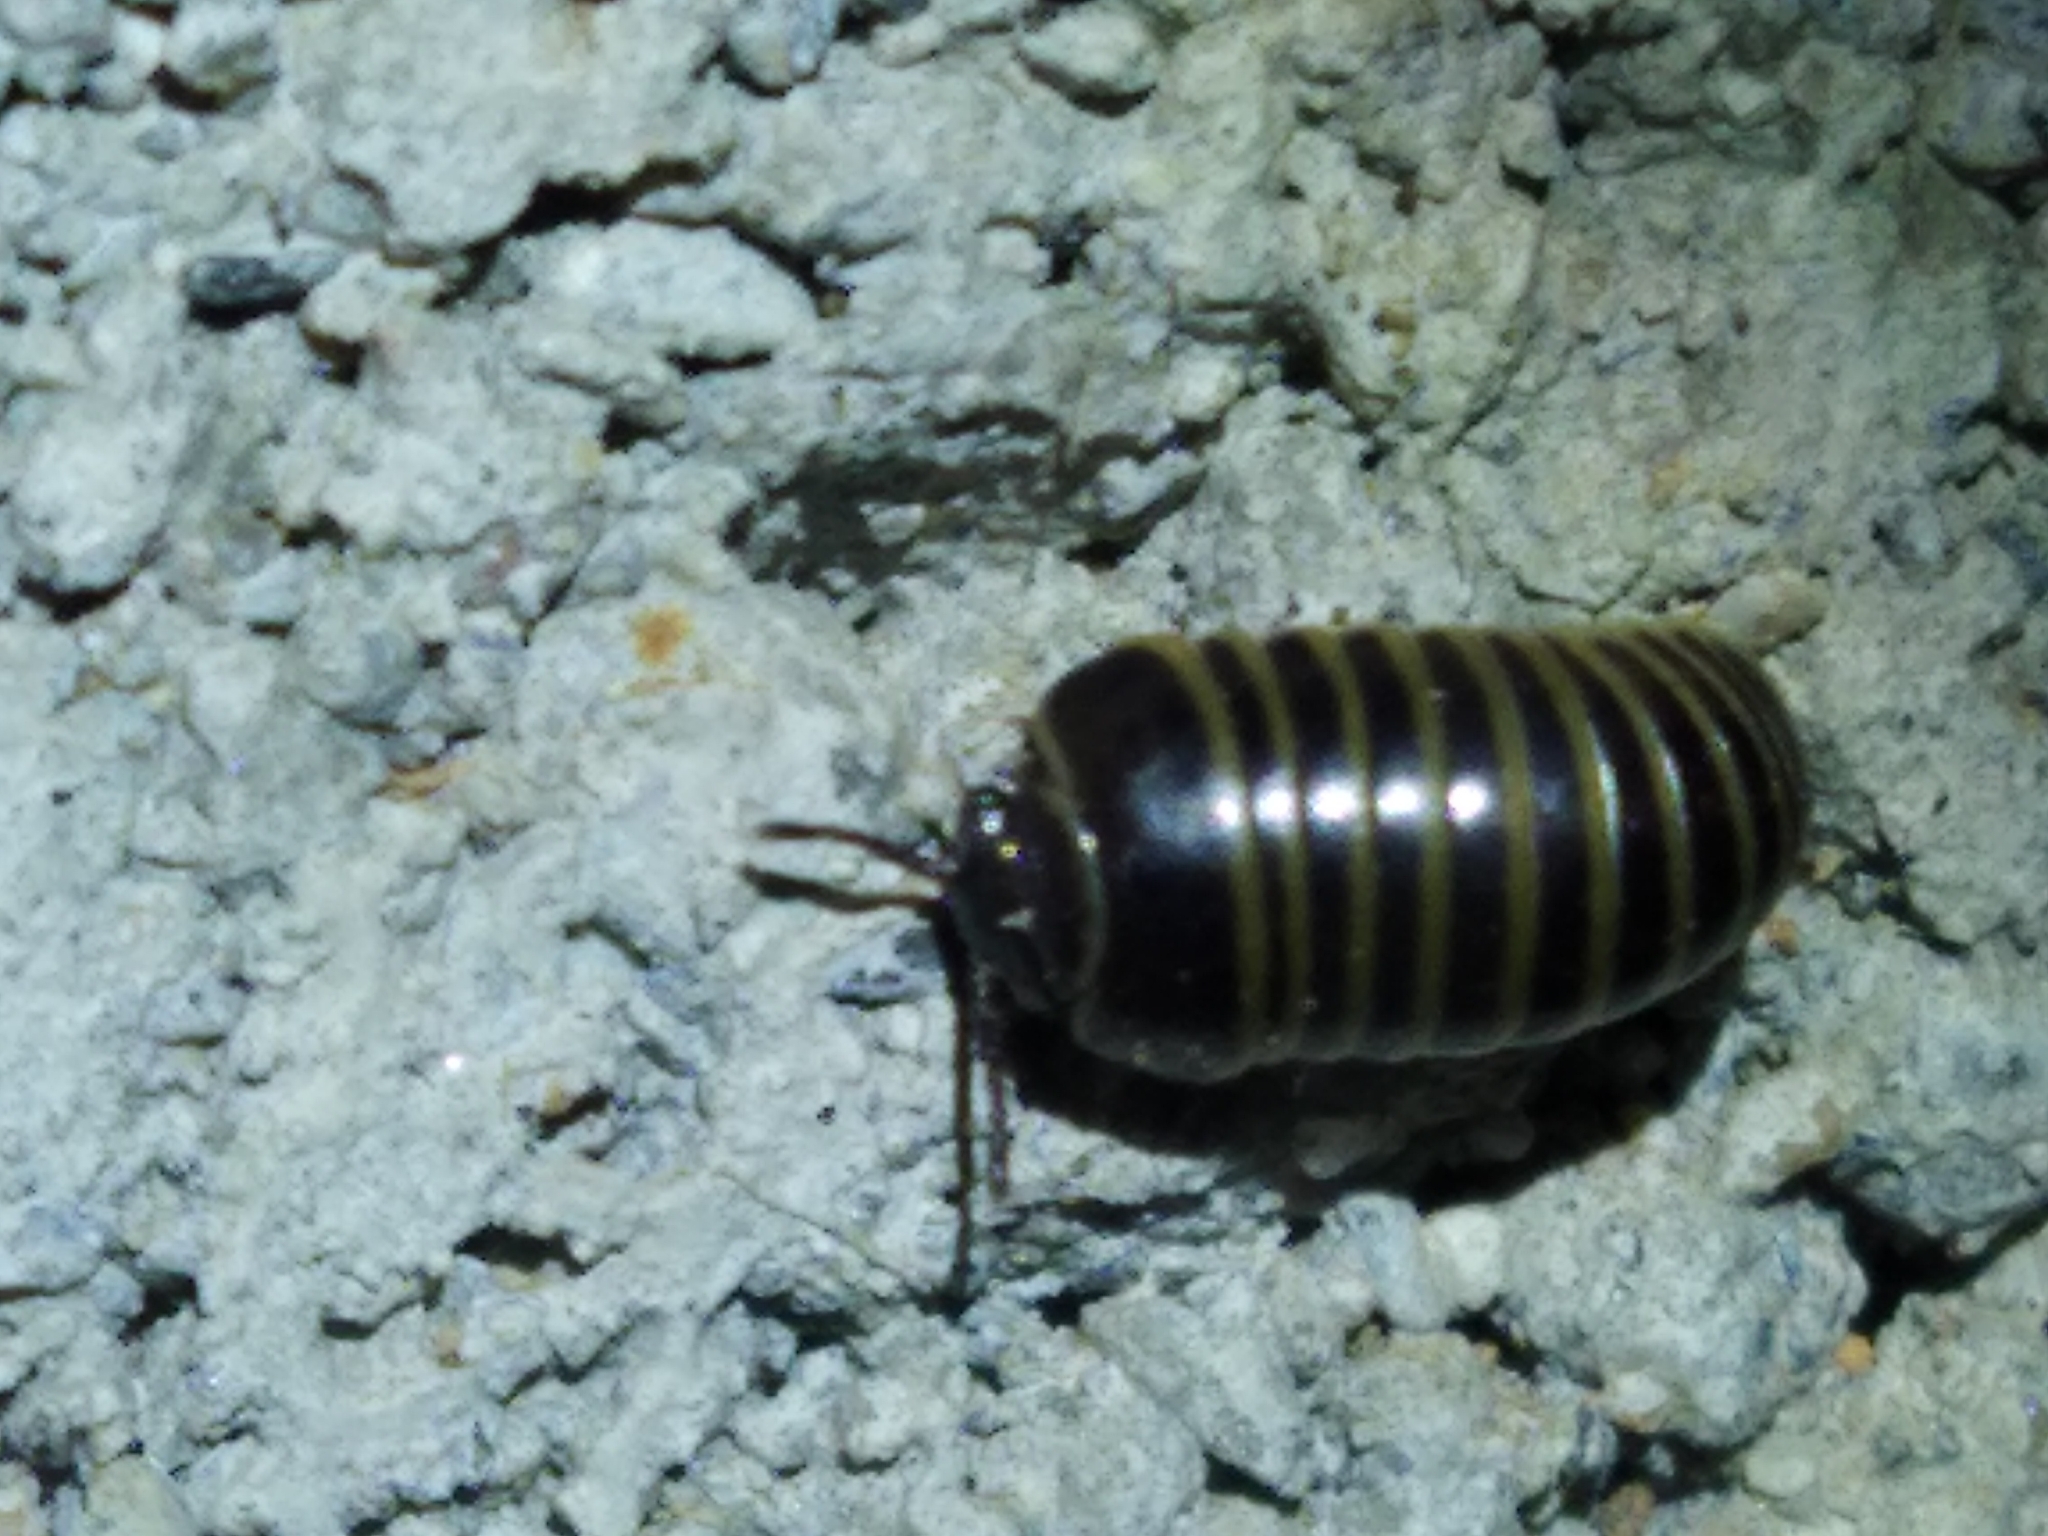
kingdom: Animalia
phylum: Arthropoda
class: Diplopoda
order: Glomerida
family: Glomeridae
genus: Glomeris
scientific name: Glomeris marginata
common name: Bordered pill millipede
